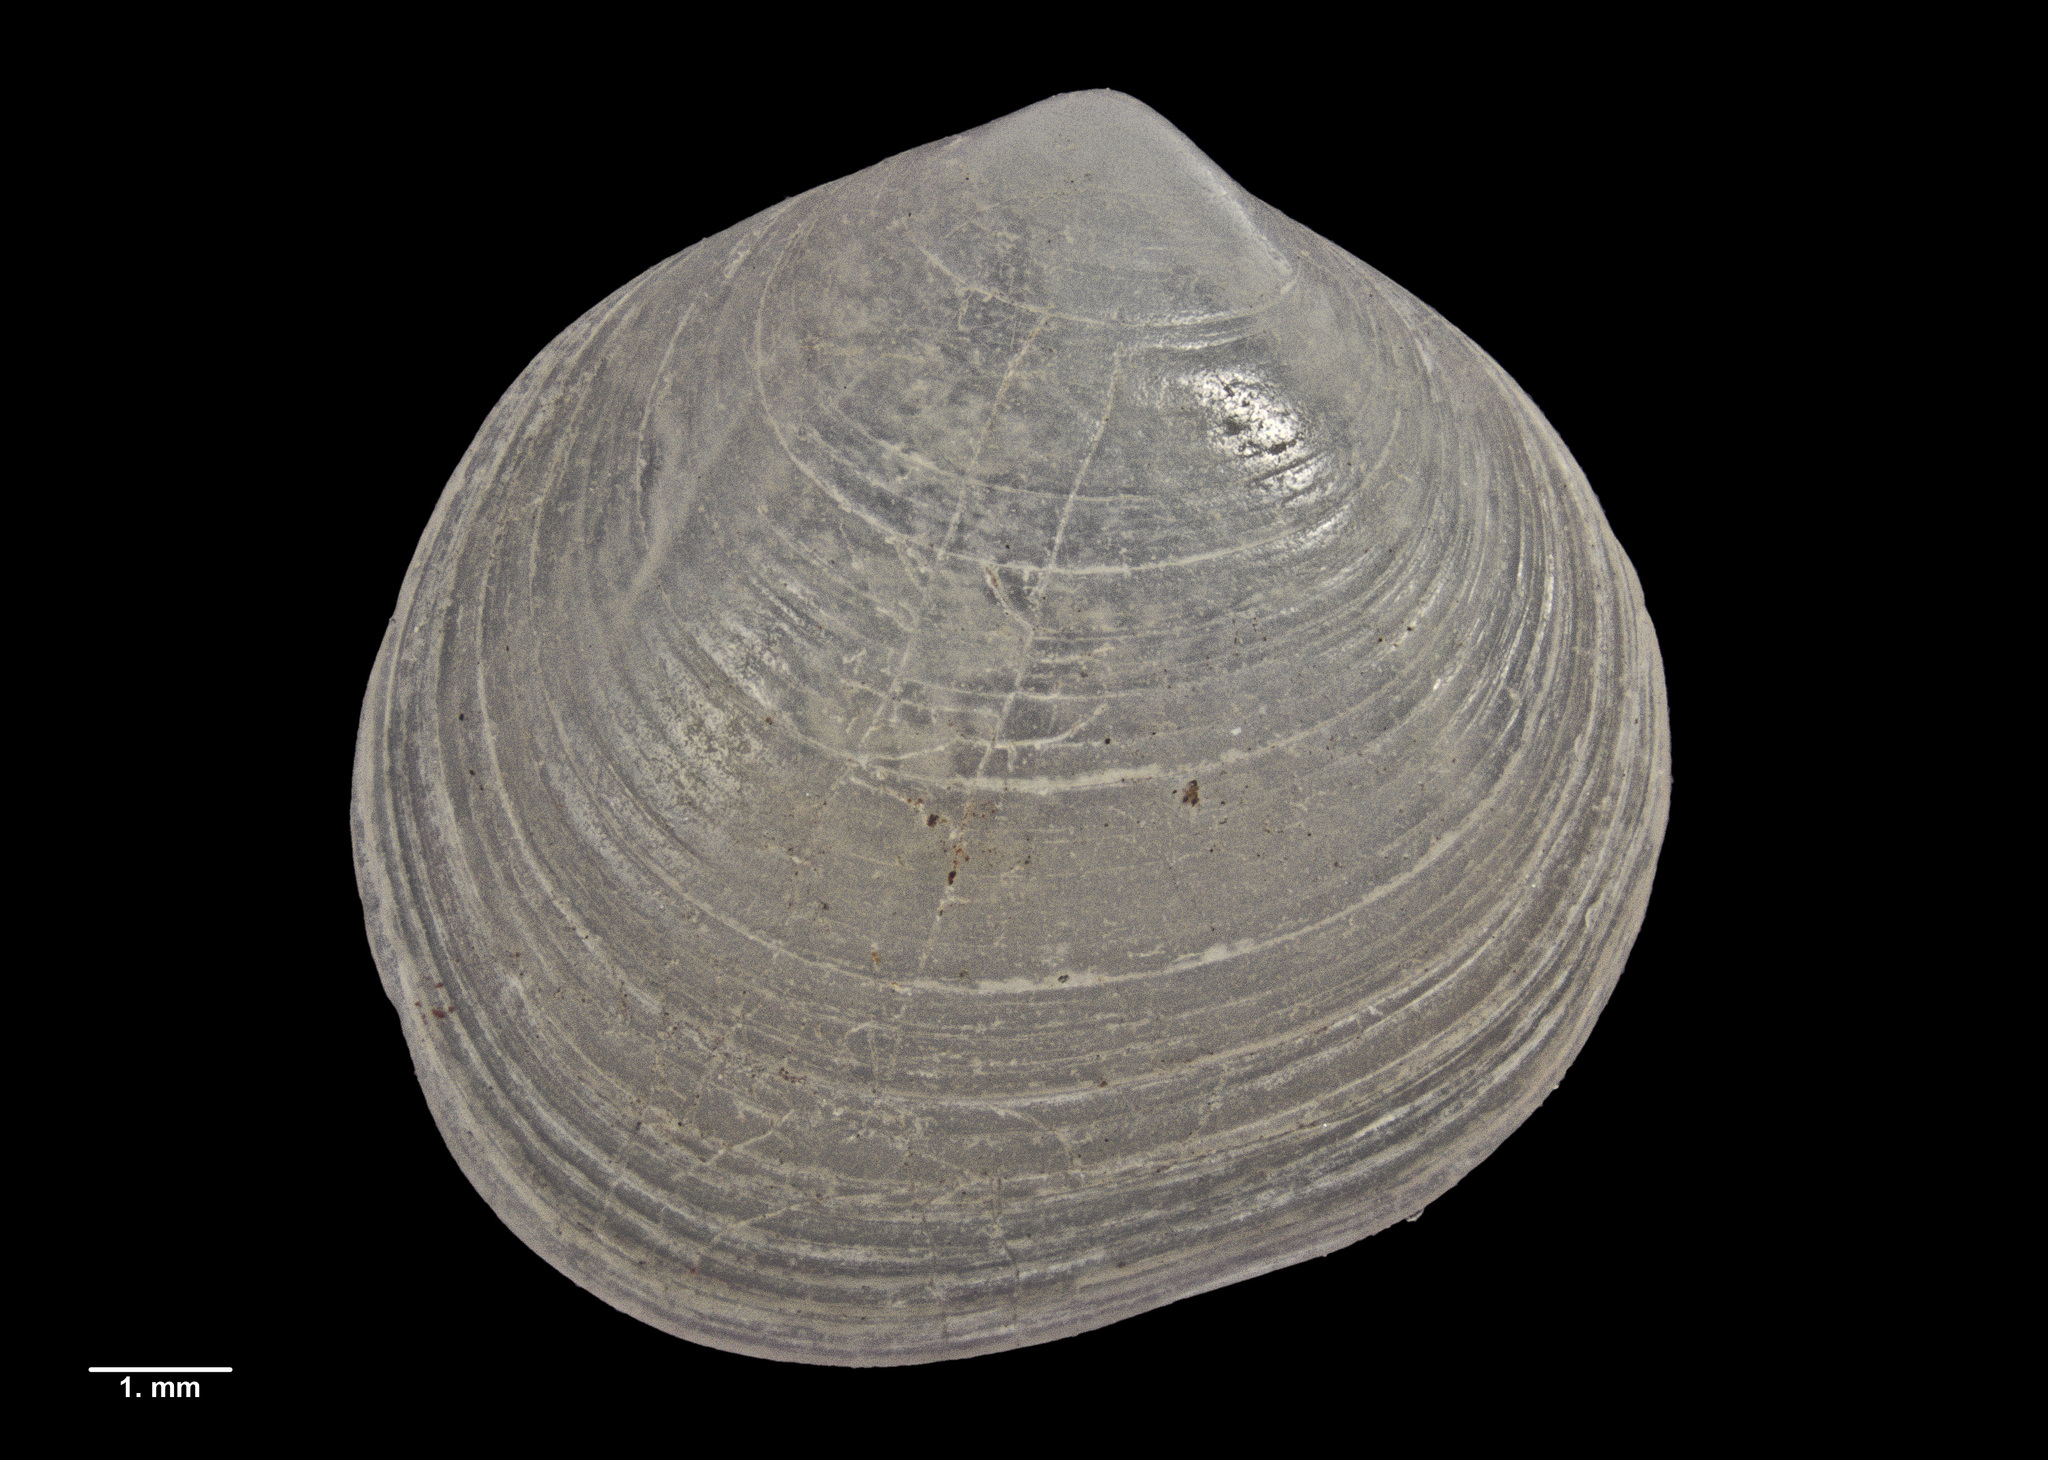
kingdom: Animalia
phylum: Mollusca
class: Bivalvia
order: Venerida
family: Ungulinidae
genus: Zemysia
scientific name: Zemysia rakiura
